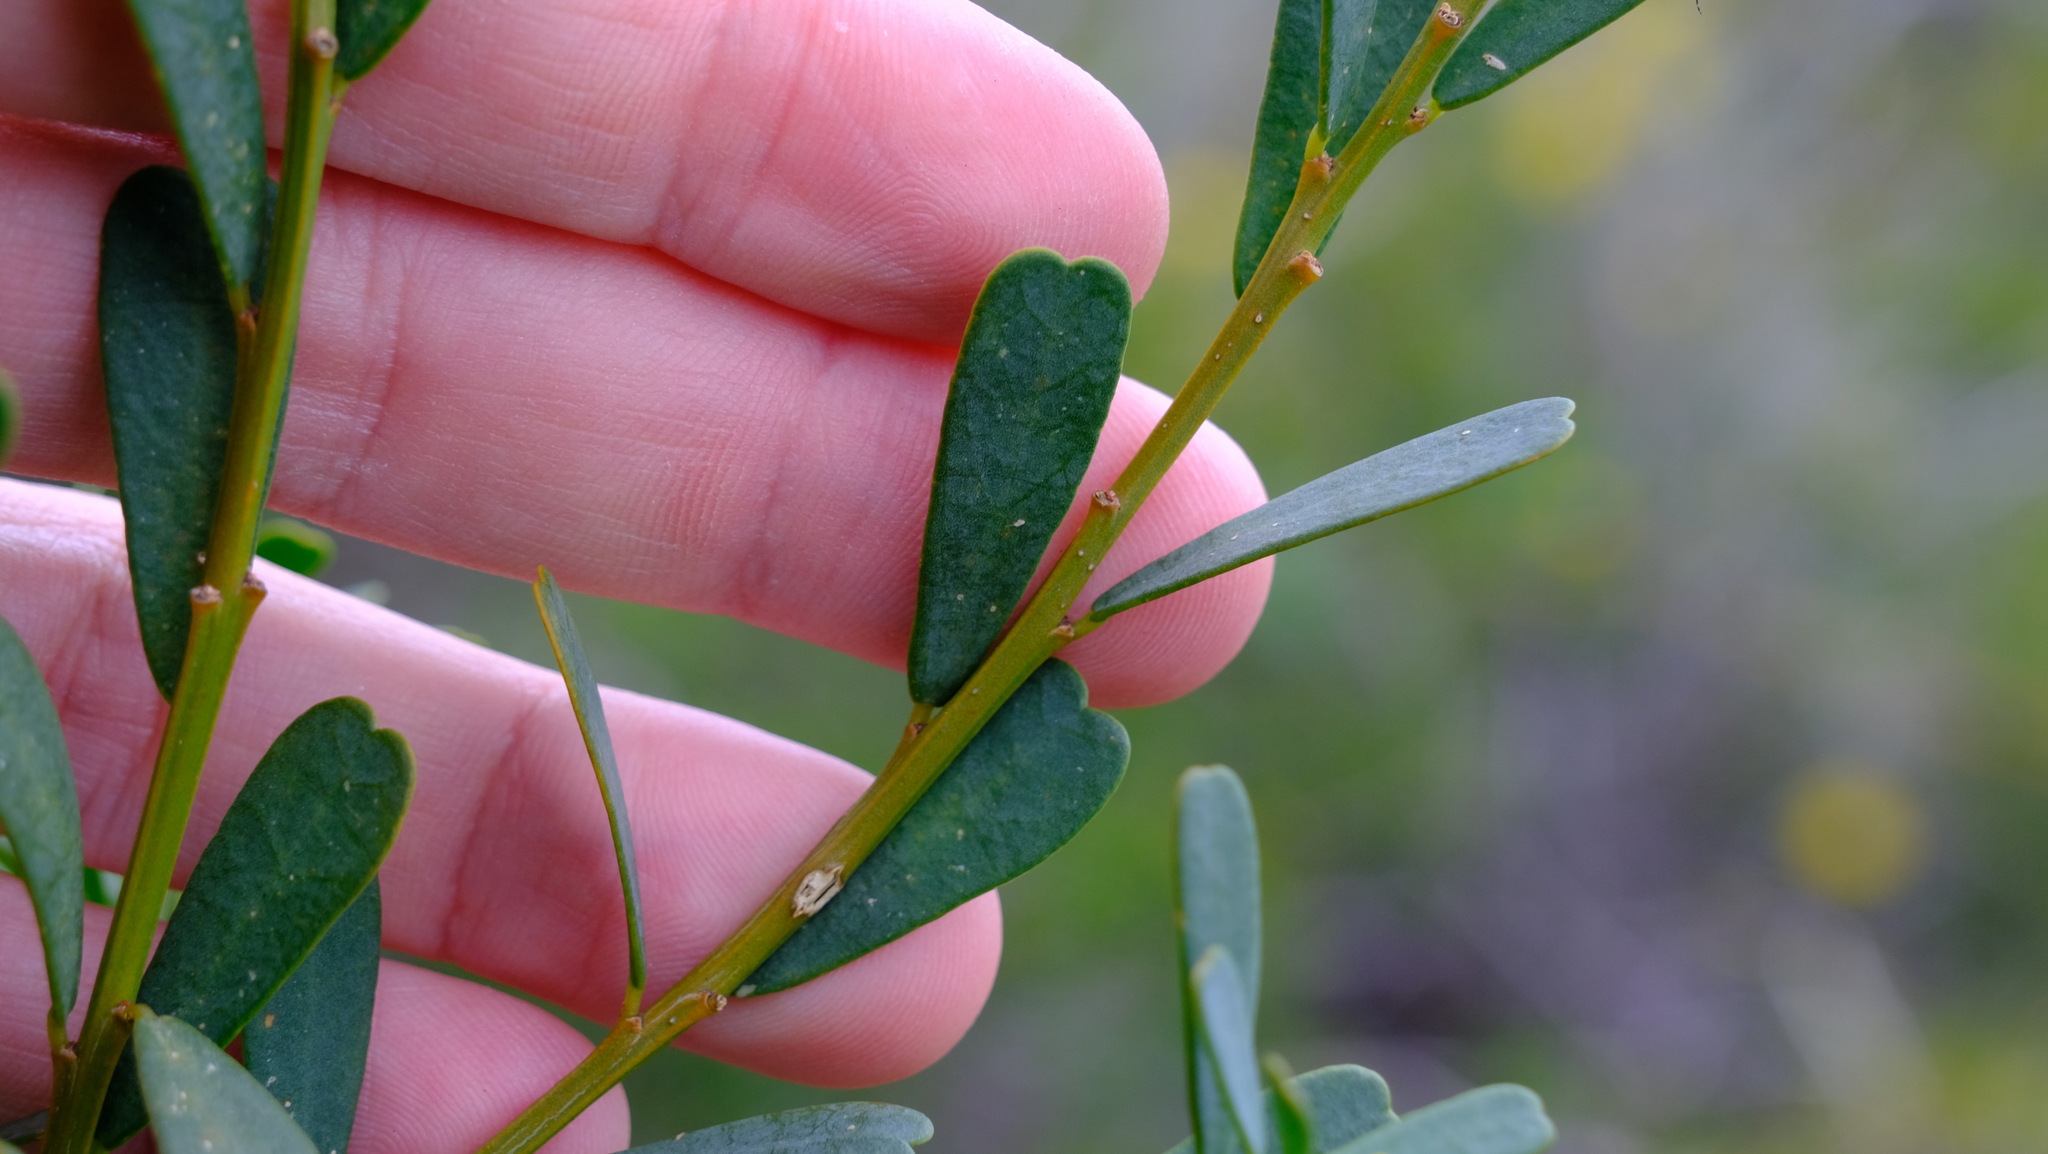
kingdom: Plantae
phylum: Tracheophyta
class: Magnoliopsida
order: Fabales
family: Fabaceae
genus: Templetonia
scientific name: Templetonia retusa
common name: Cockies'-tongue
